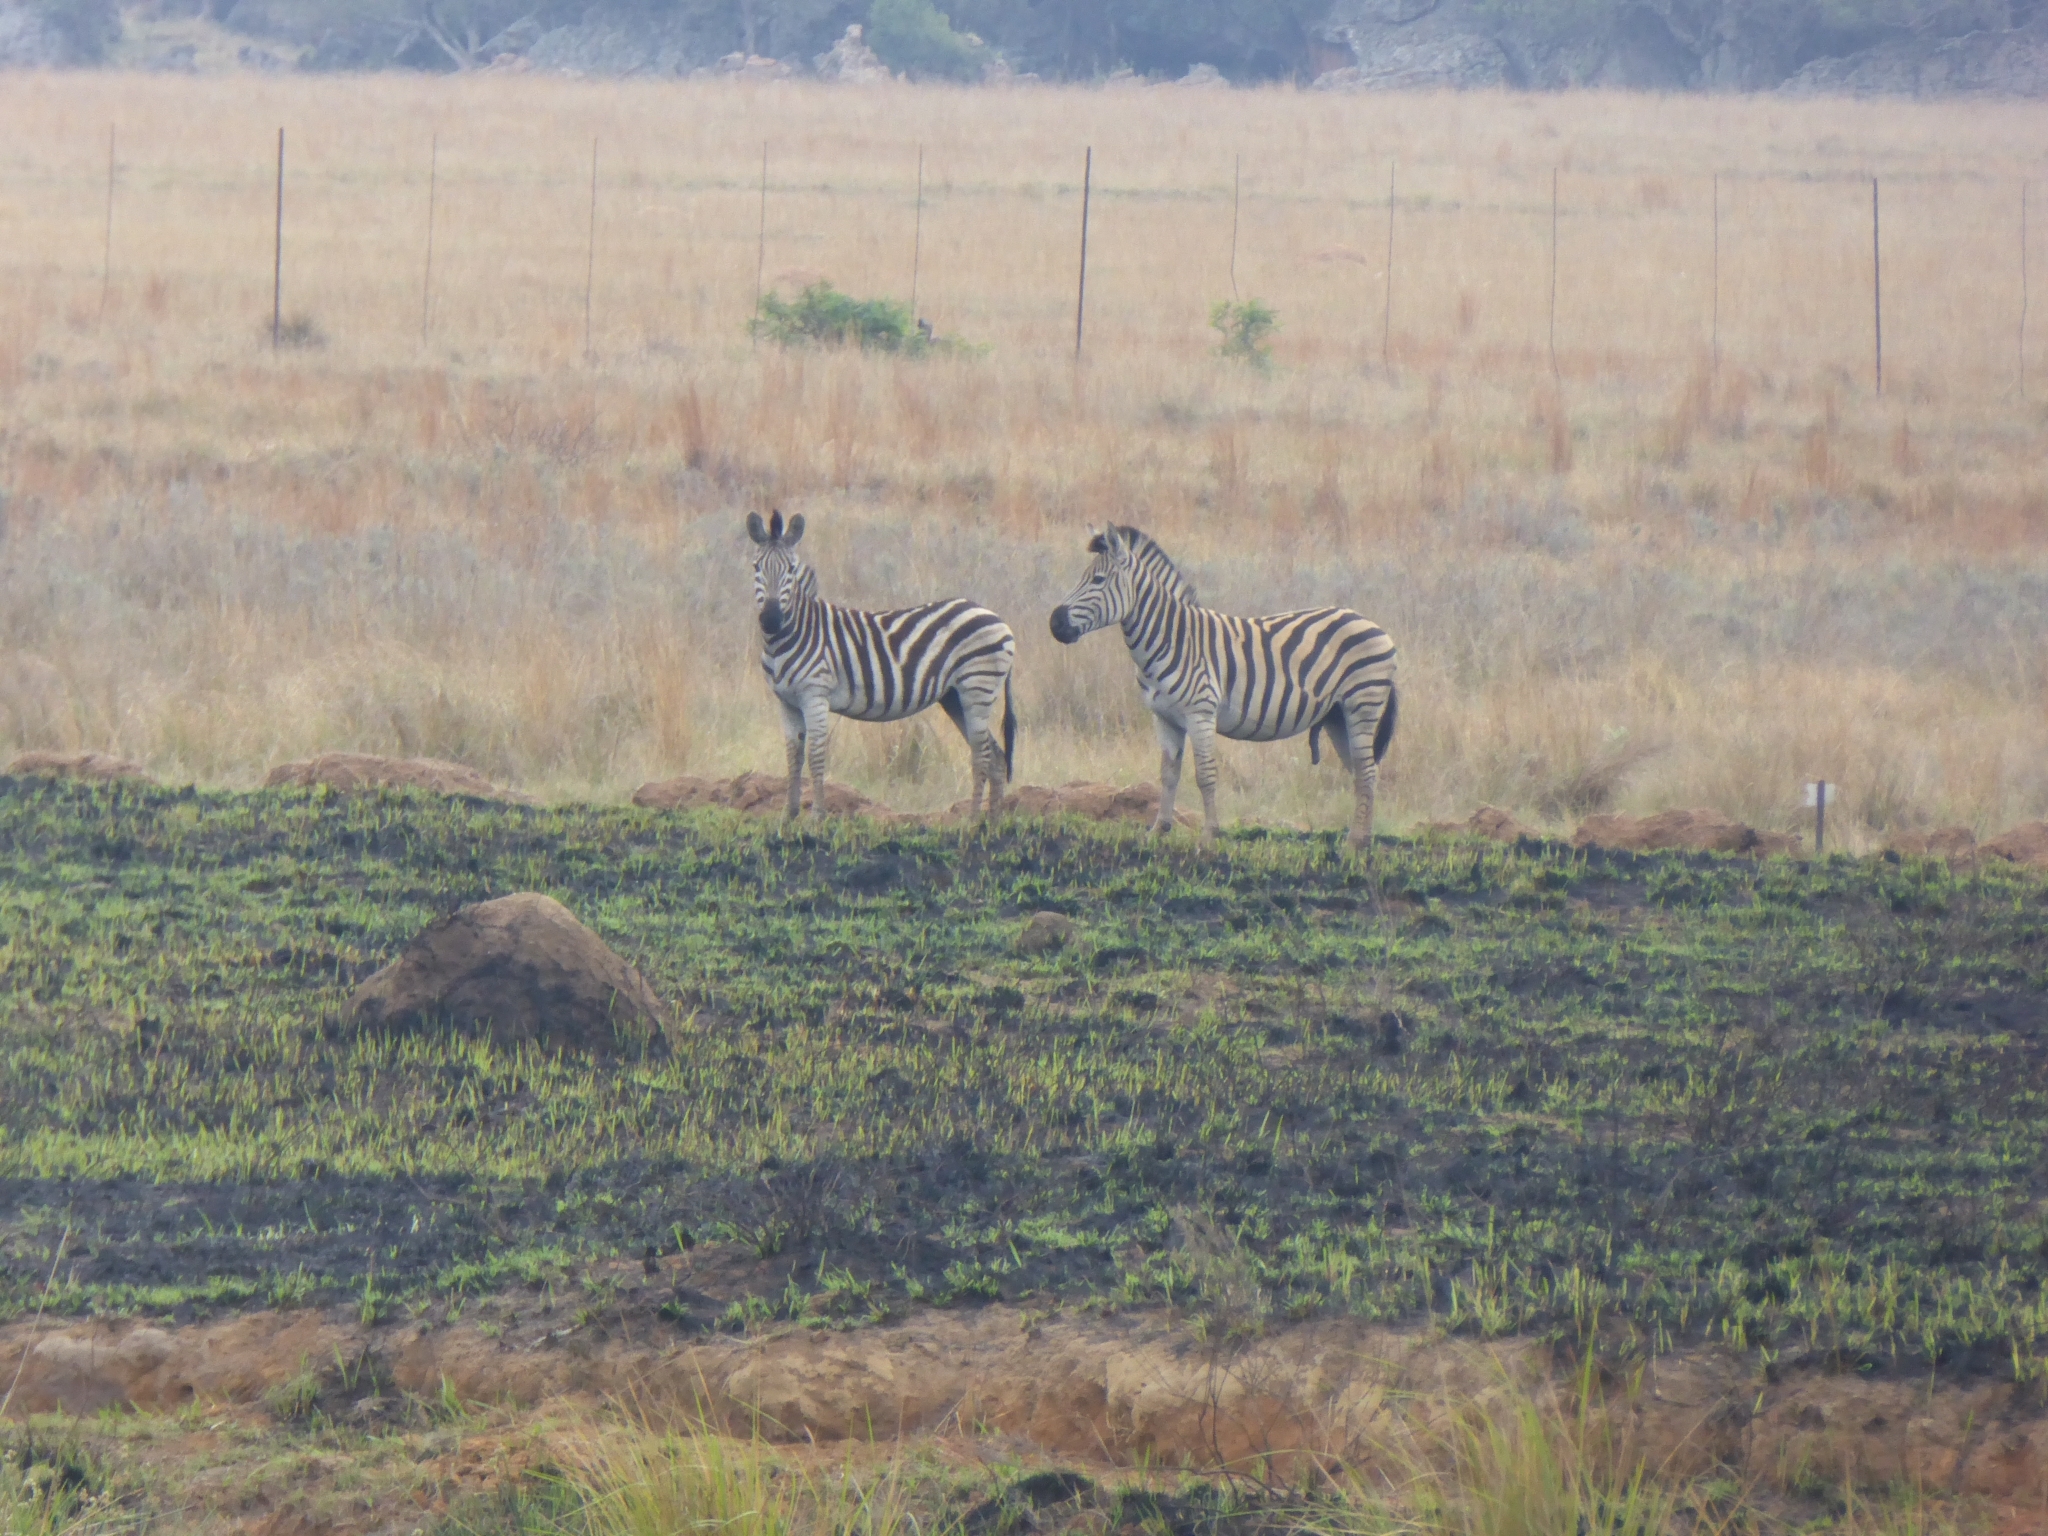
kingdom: Animalia
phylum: Chordata
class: Mammalia
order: Perissodactyla
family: Equidae
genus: Equus
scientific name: Equus quagga
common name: Plains zebra
